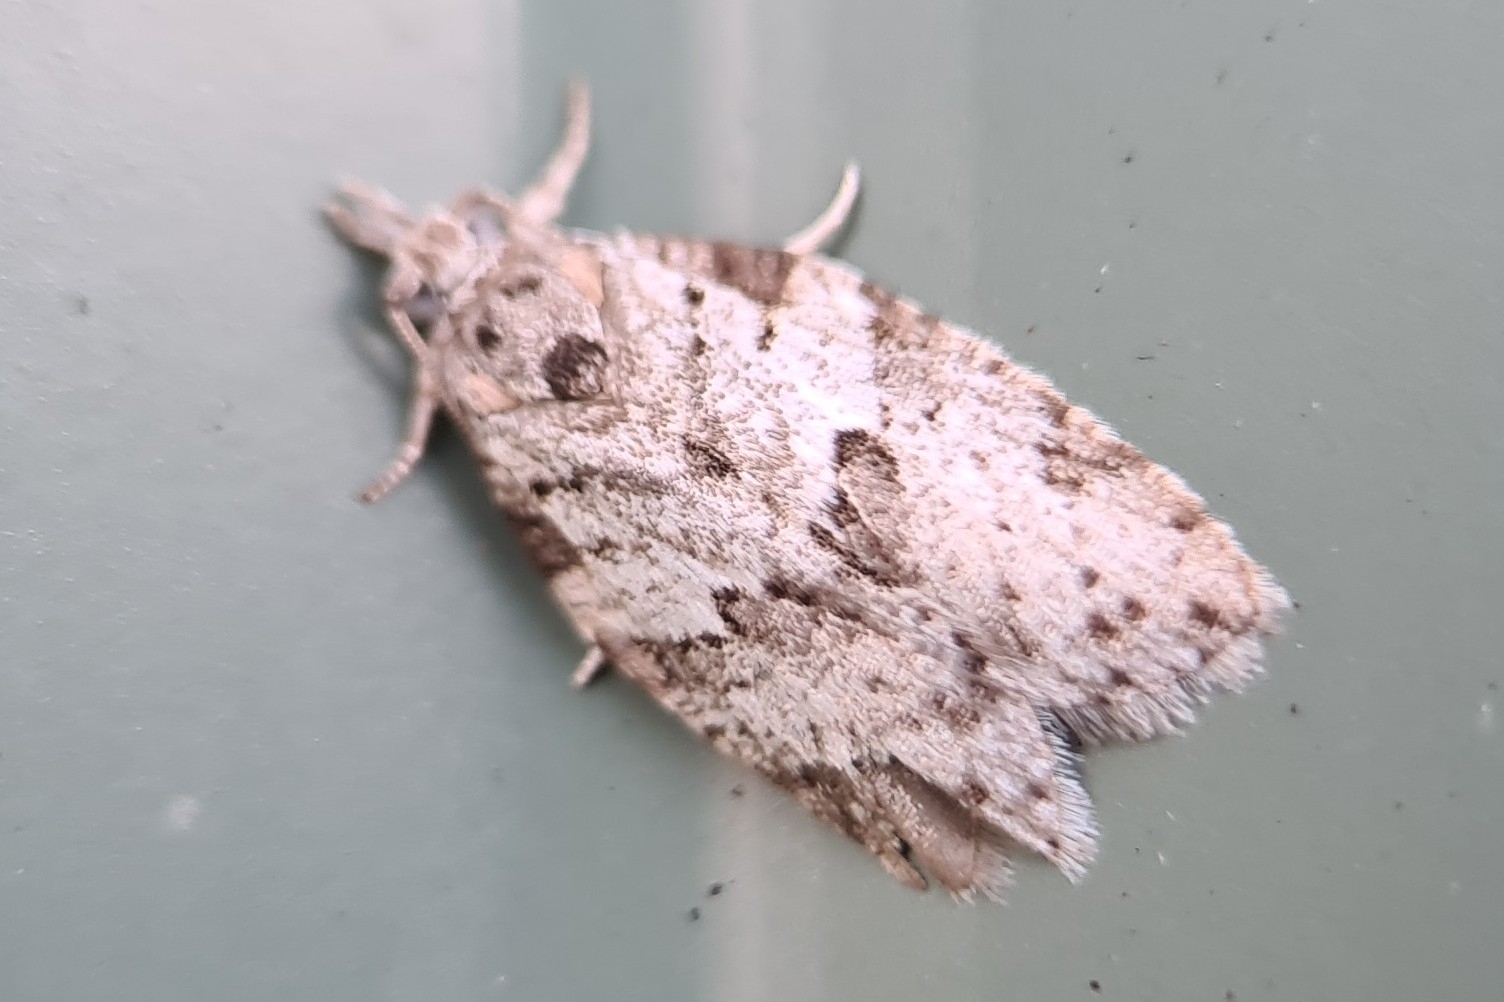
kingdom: Animalia
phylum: Arthropoda
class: Insecta
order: Lepidoptera
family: Tortricidae
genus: Isotenes
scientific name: Isotenes miserana
